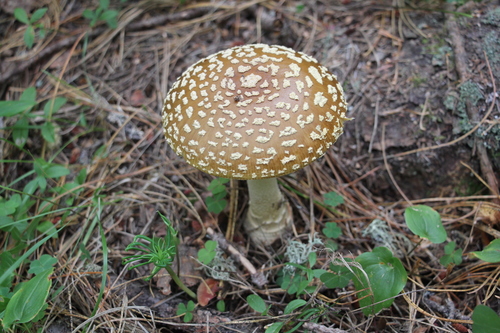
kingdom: Fungi
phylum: Basidiomycota
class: Agaricomycetes
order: Agaricales
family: Amanitaceae
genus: Amanita
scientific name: Amanita regalis
